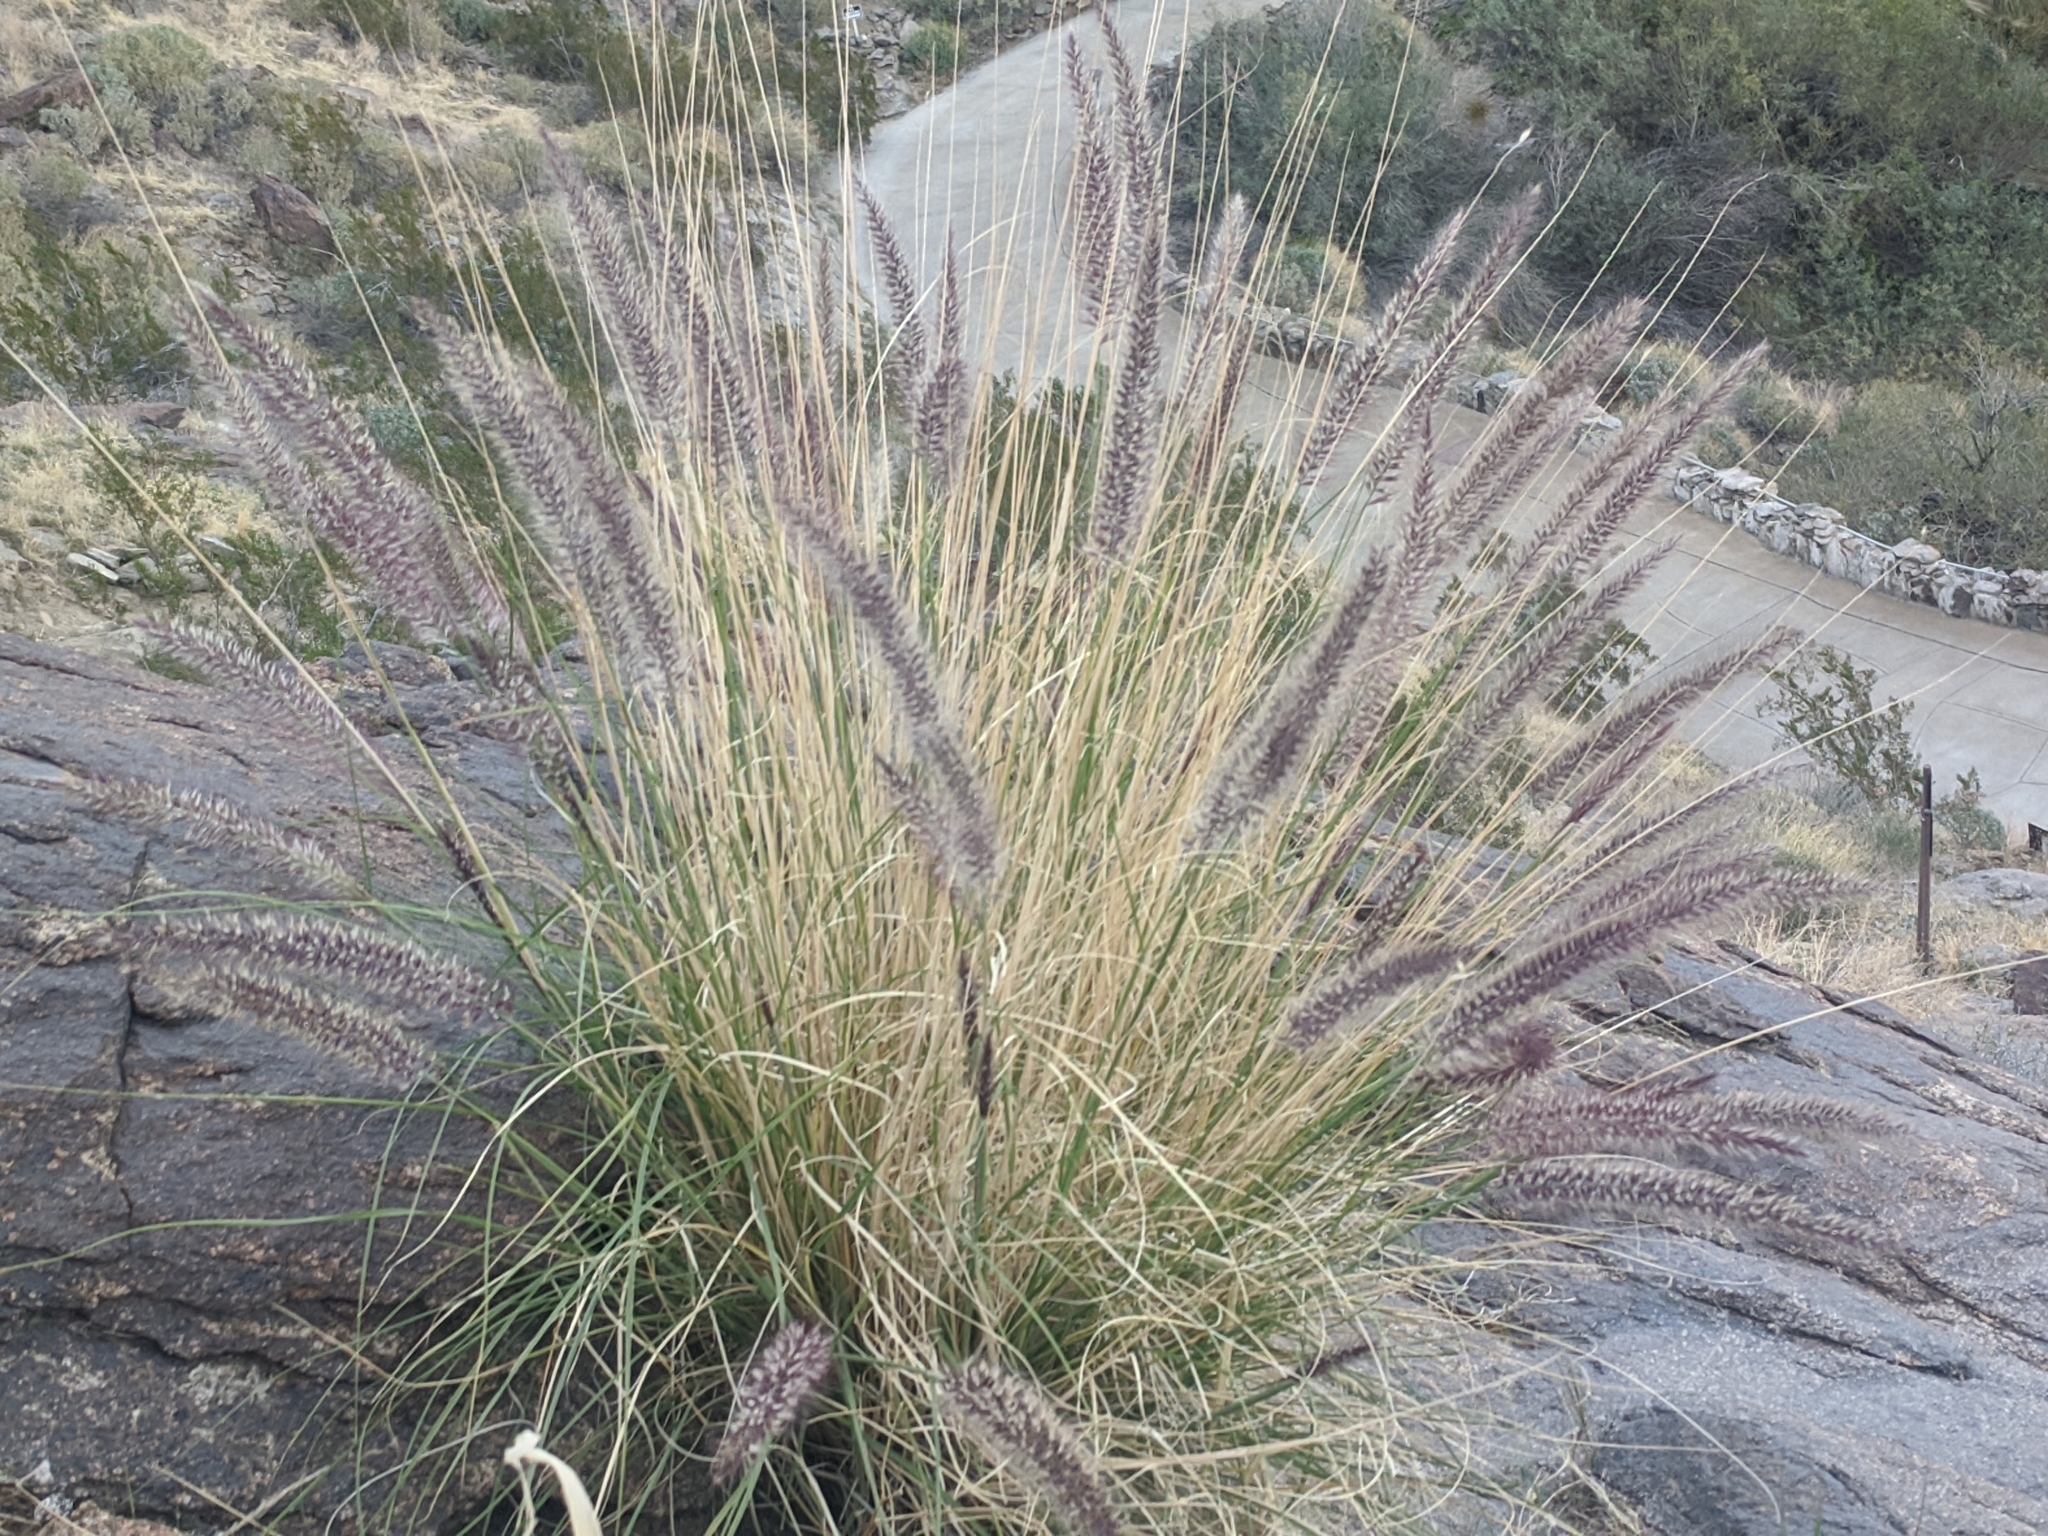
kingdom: Plantae
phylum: Tracheophyta
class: Liliopsida
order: Poales
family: Poaceae
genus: Cenchrus
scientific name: Cenchrus setaceus
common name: Crimson fountaingrass
